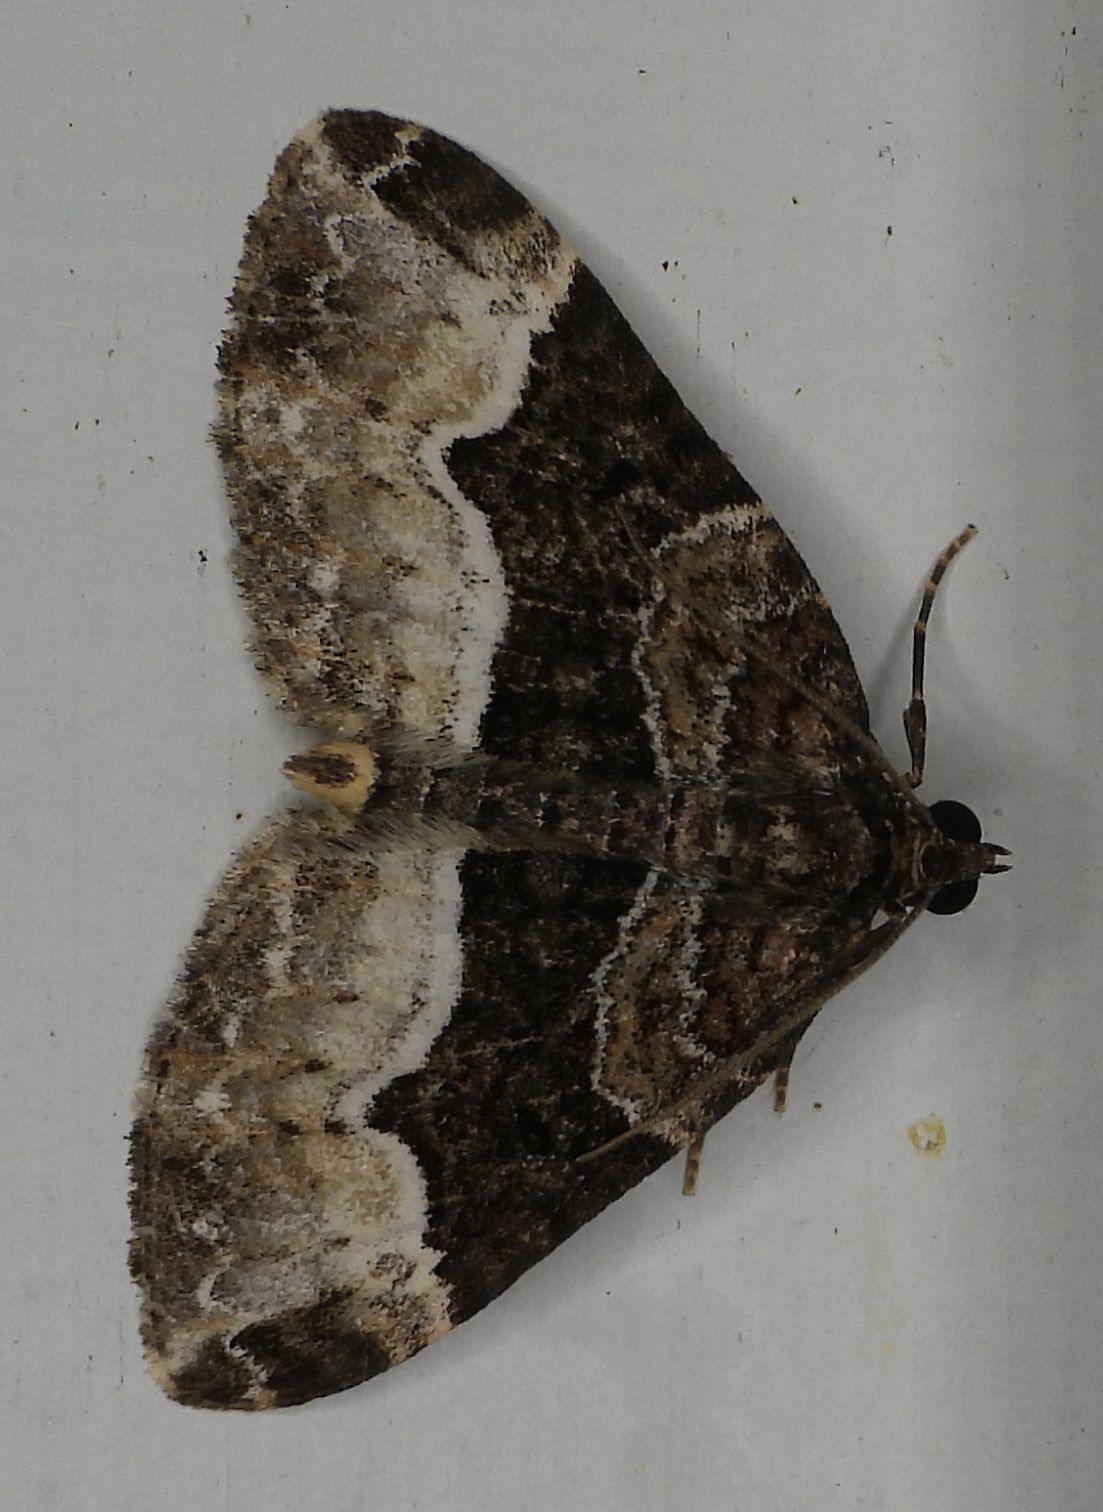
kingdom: Animalia
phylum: Arthropoda
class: Insecta
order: Lepidoptera
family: Geometridae
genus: Euphyia
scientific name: Euphyia intermediata
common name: Sharp-angled carpet
